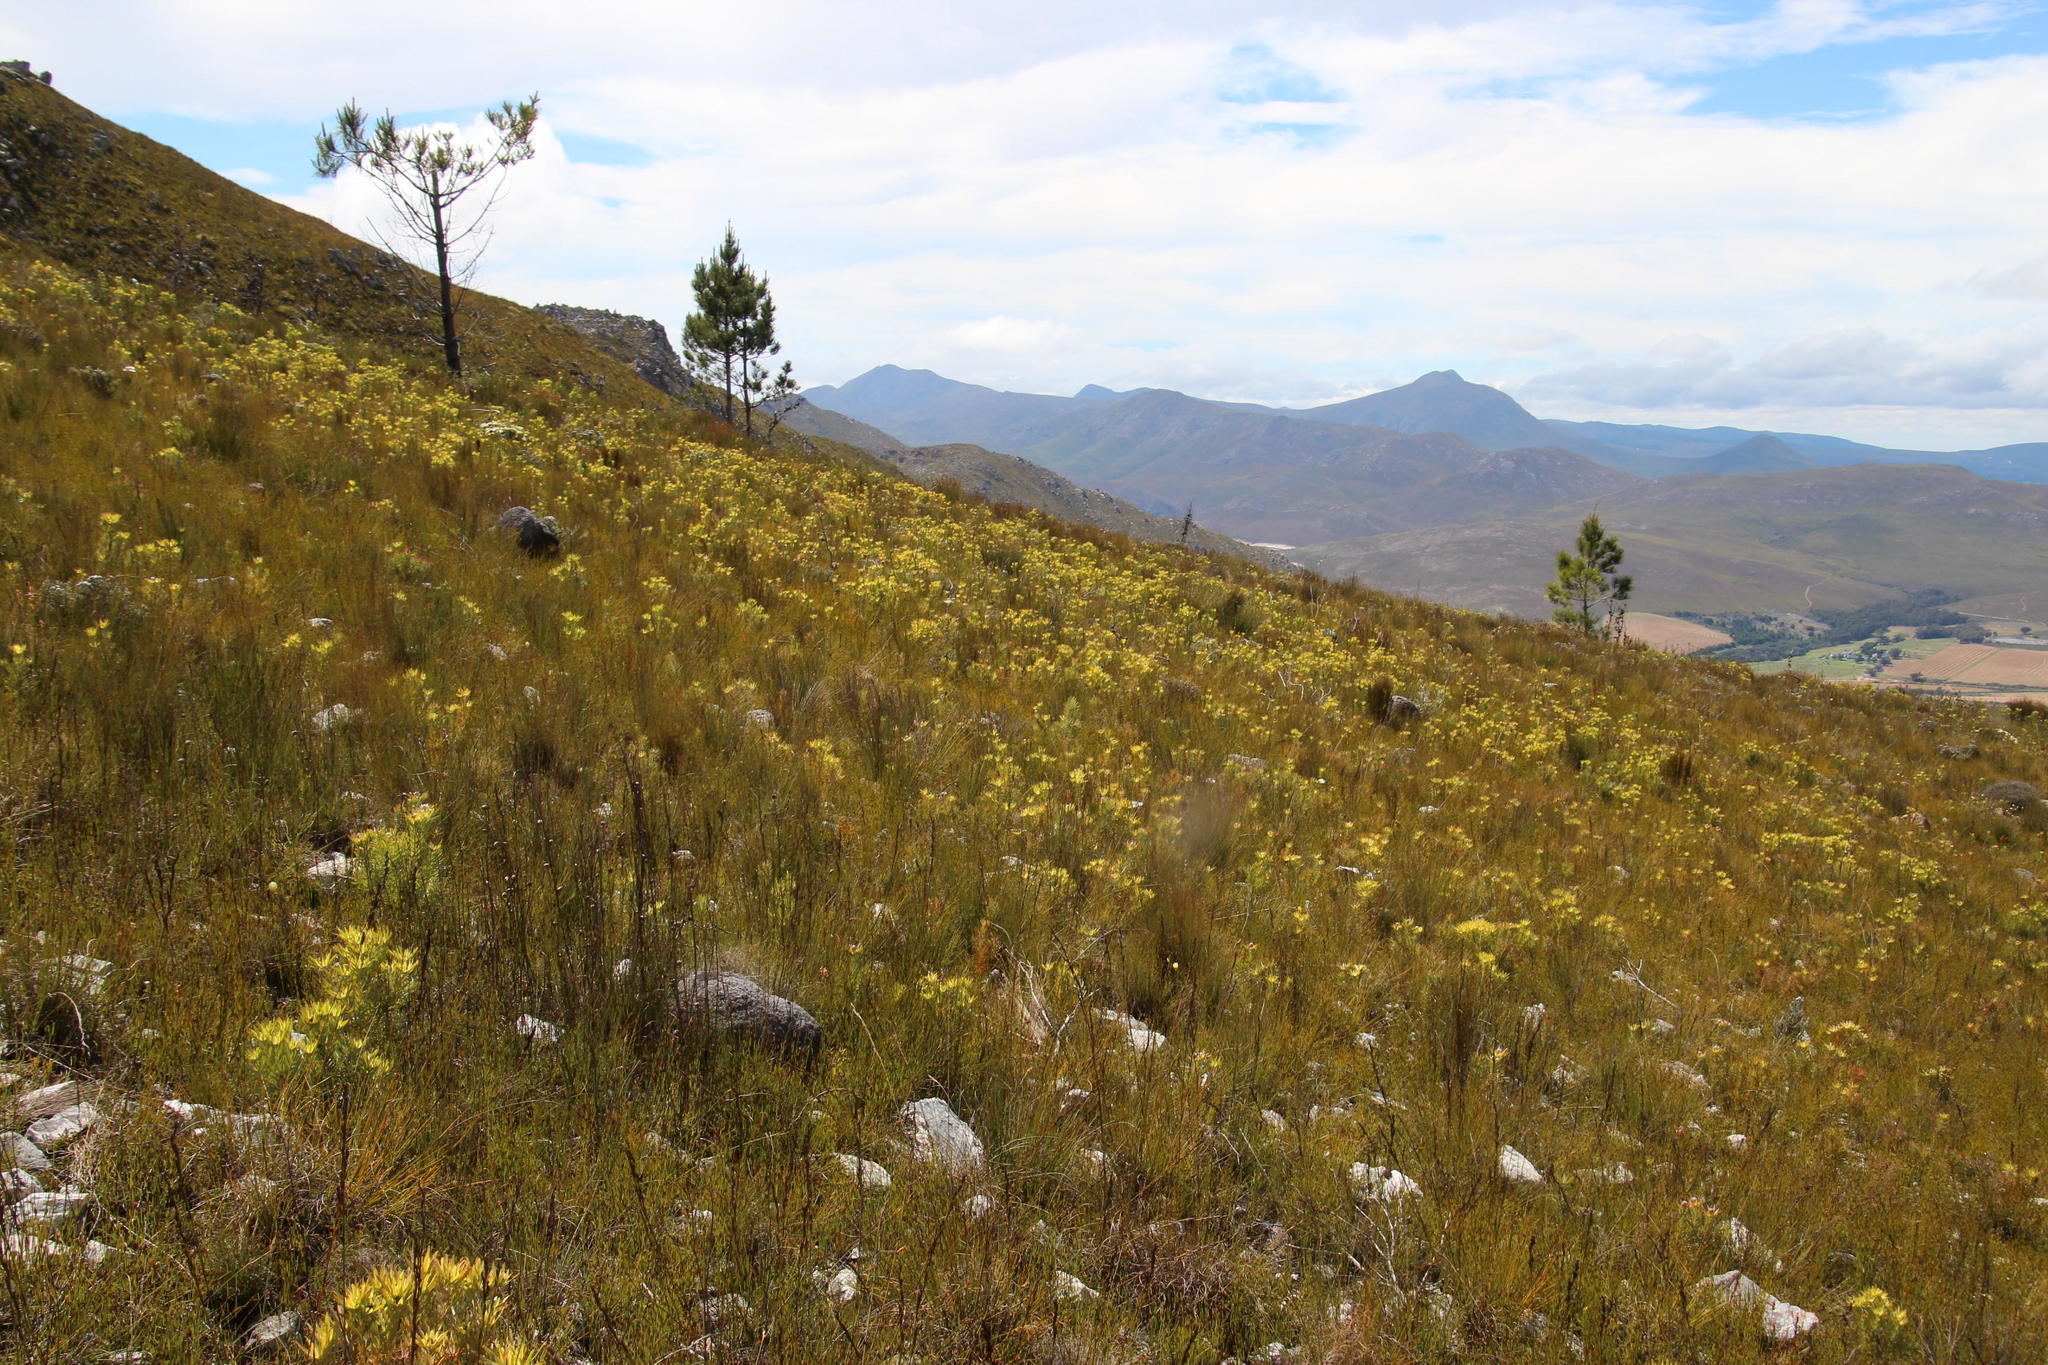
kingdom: Plantae
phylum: Tracheophyta
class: Pinopsida
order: Pinales
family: Pinaceae
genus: Pinus
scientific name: Pinus pinaster
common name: Maritime pine
